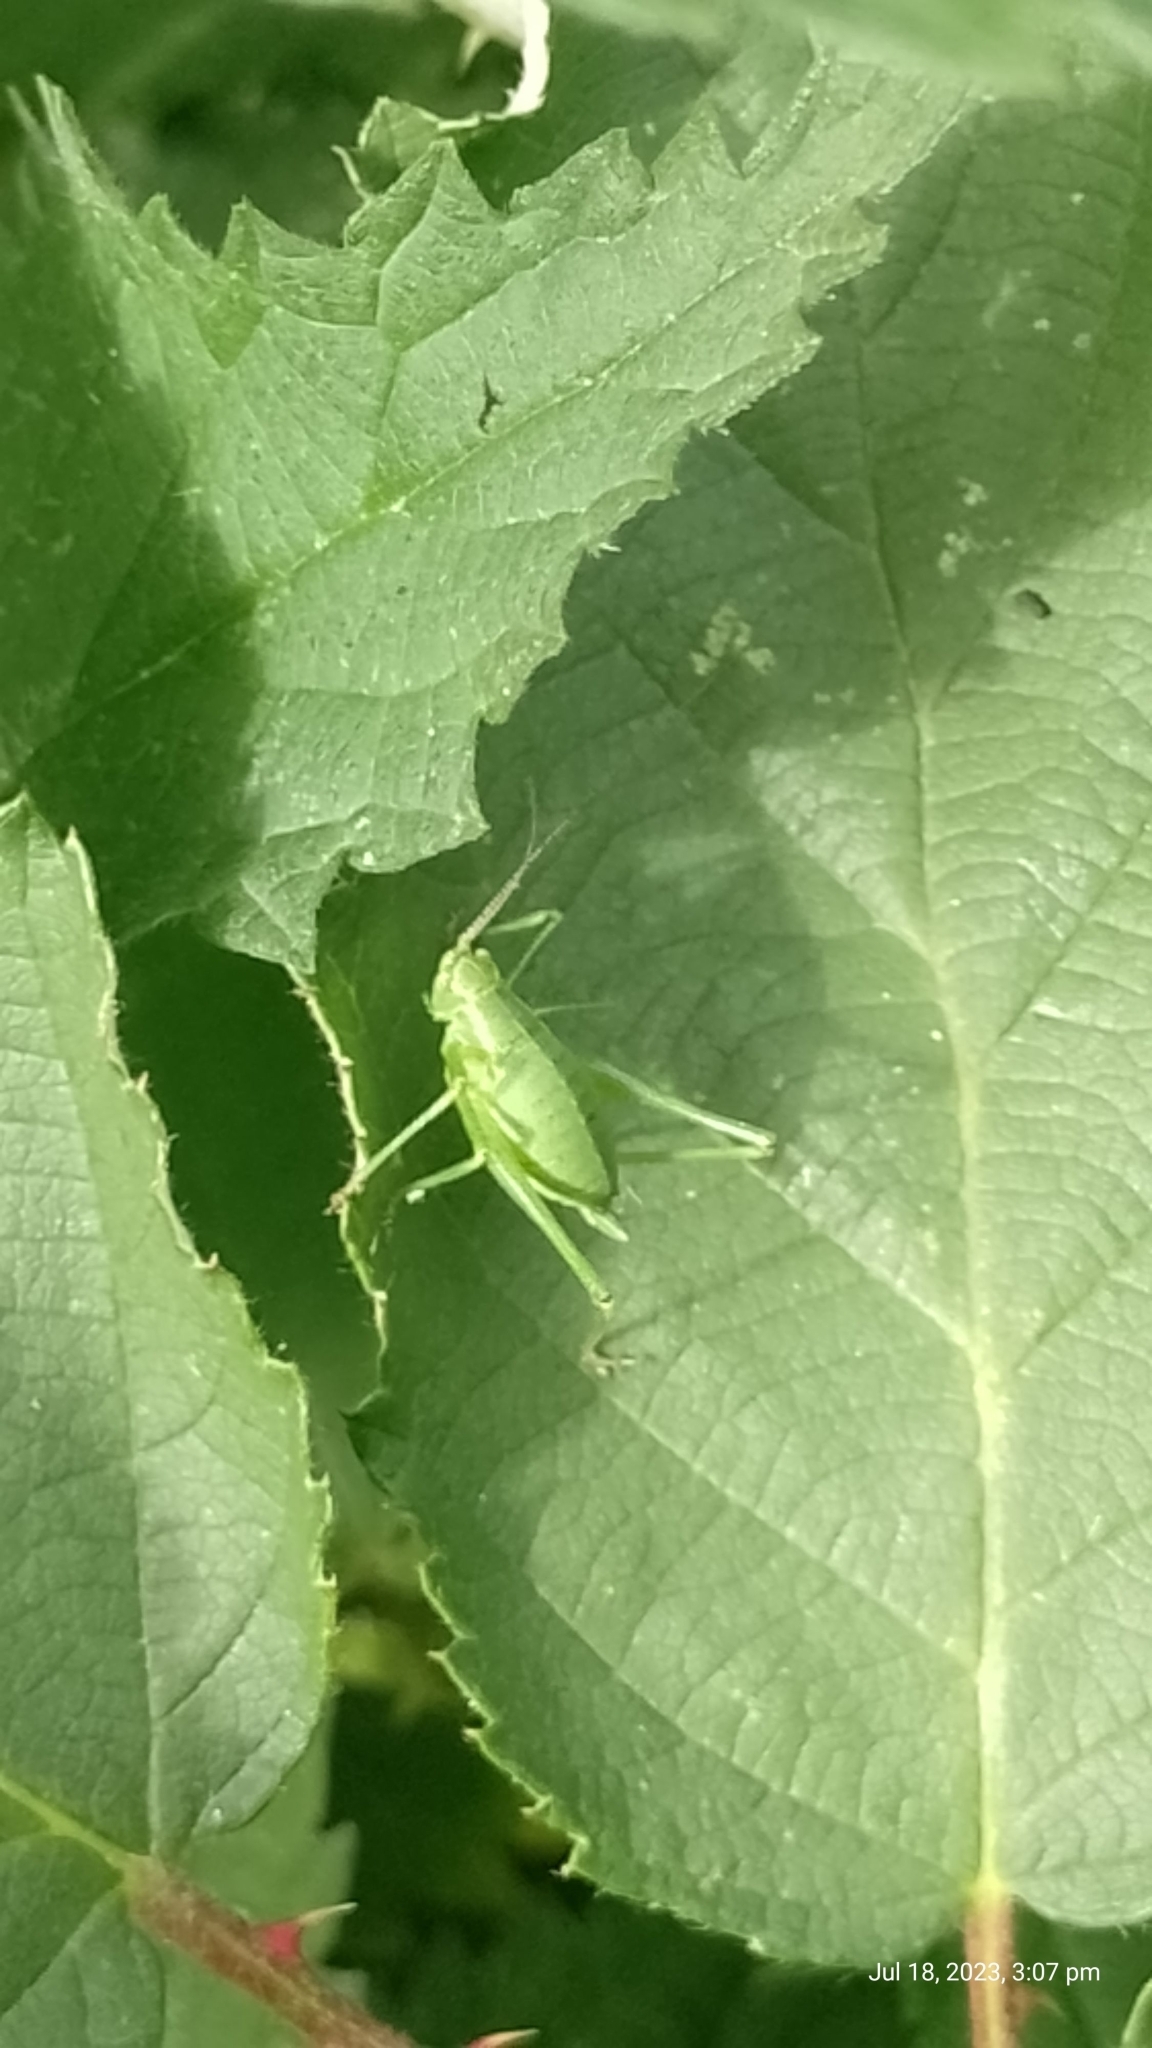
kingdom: Animalia
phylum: Arthropoda
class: Insecta
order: Orthoptera
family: Tettigoniidae
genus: Leptophyes
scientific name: Leptophyes punctatissima
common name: Speckled bush-cricket
